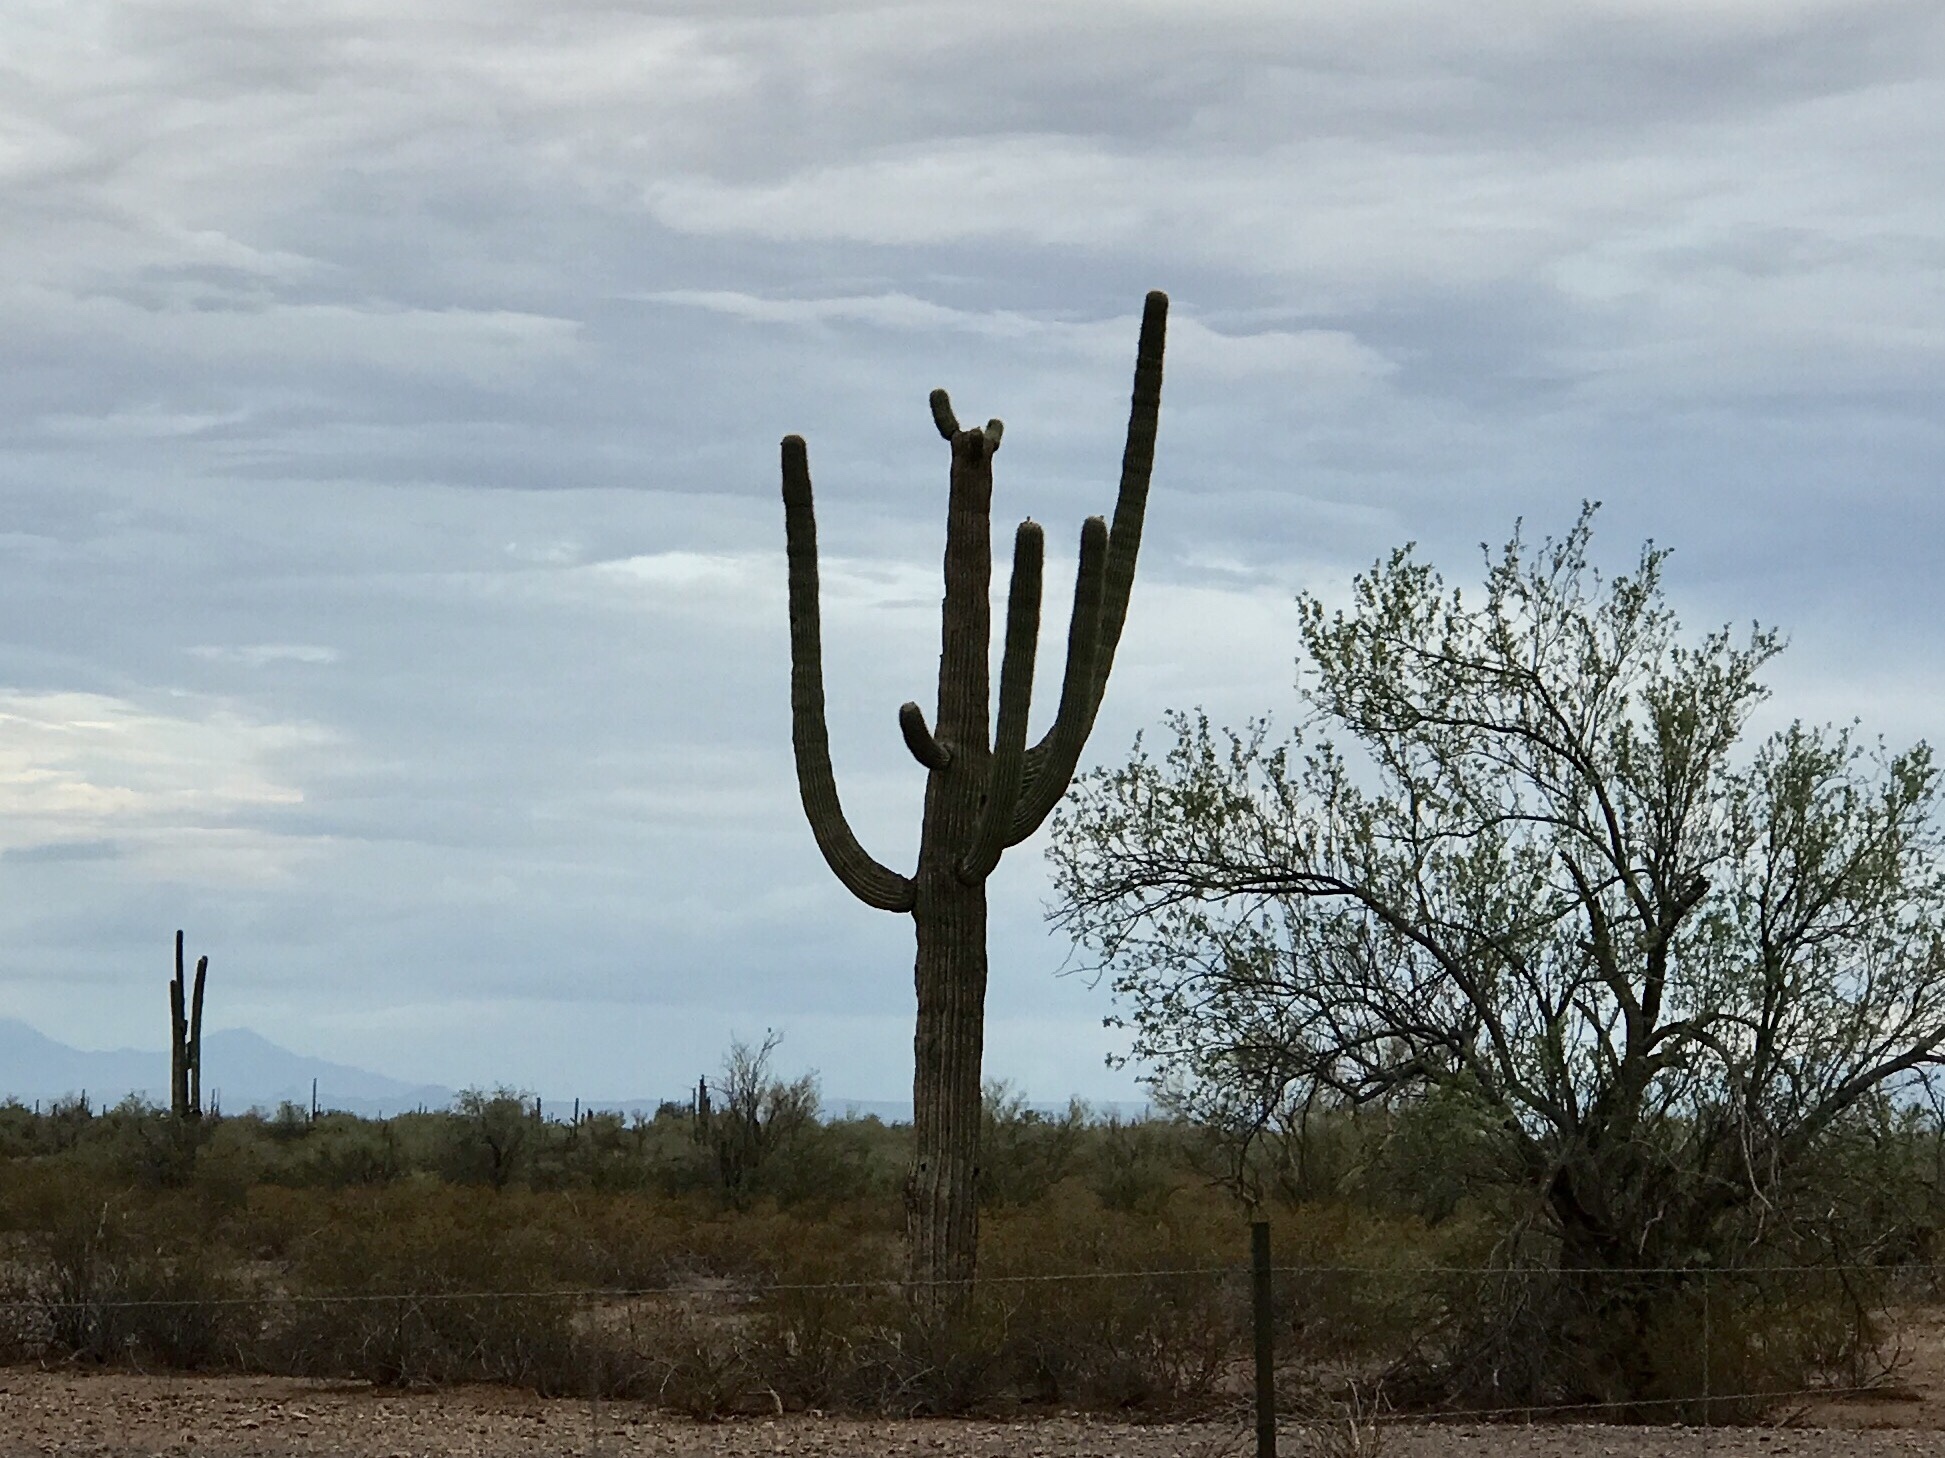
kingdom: Plantae
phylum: Tracheophyta
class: Magnoliopsida
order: Caryophyllales
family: Cactaceae
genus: Carnegiea
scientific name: Carnegiea gigantea
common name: Saguaro
